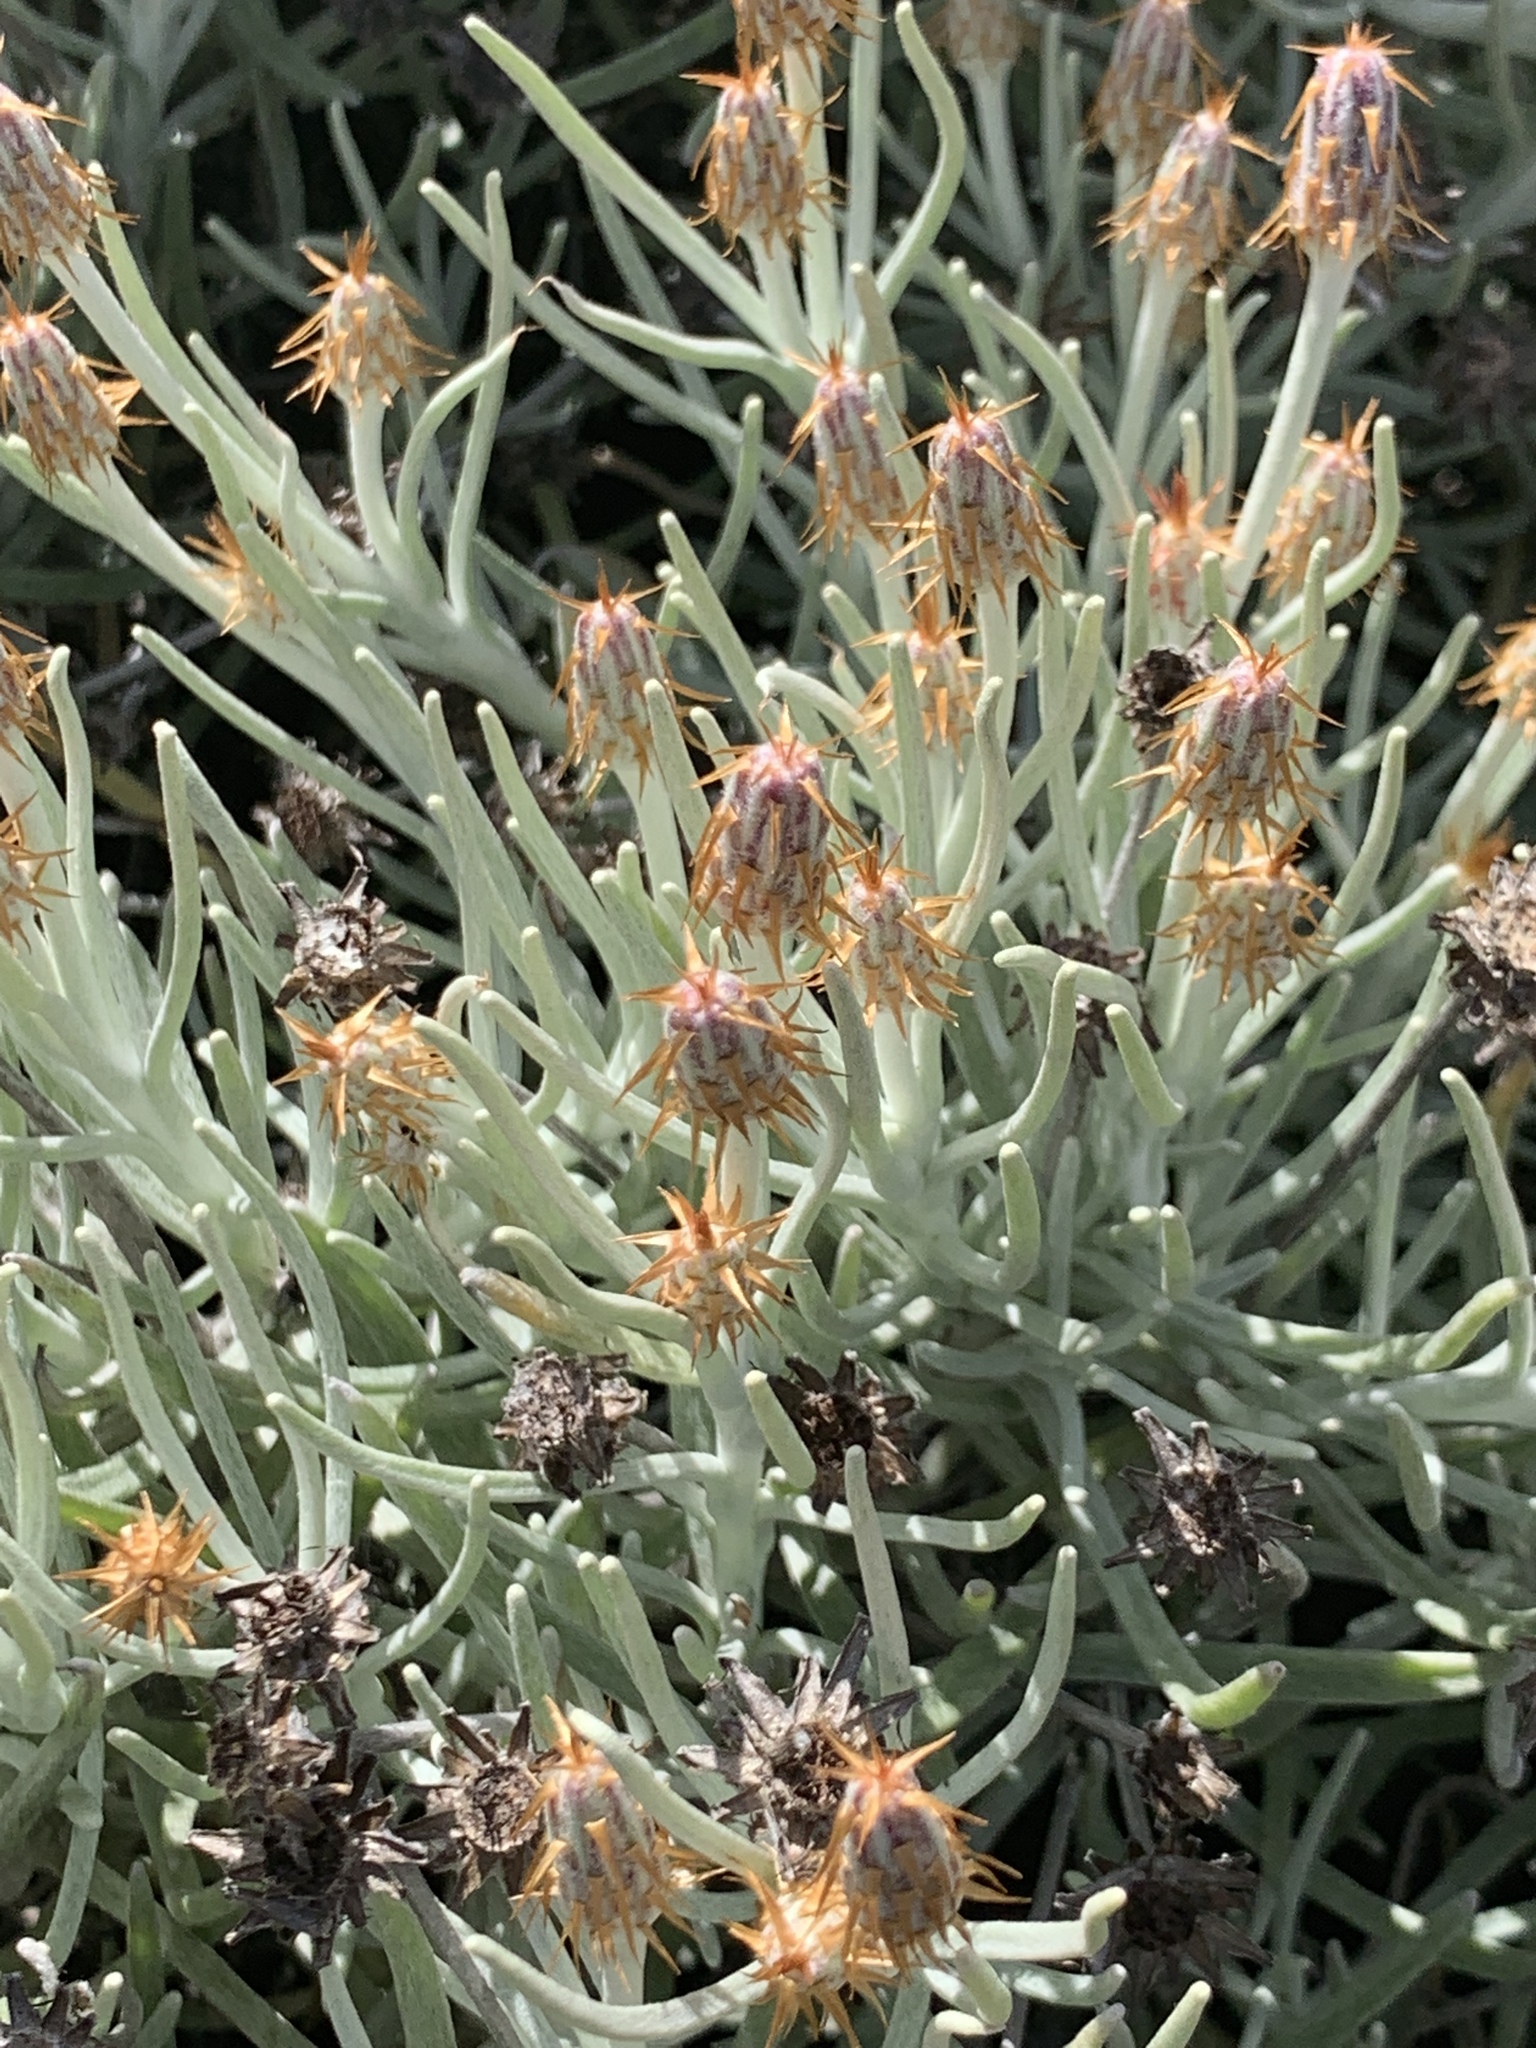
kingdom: Plantae
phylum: Tracheophyta
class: Magnoliopsida
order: Asterales
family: Asteraceae
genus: Syncarpha
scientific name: Syncarpha gnaphaloides
